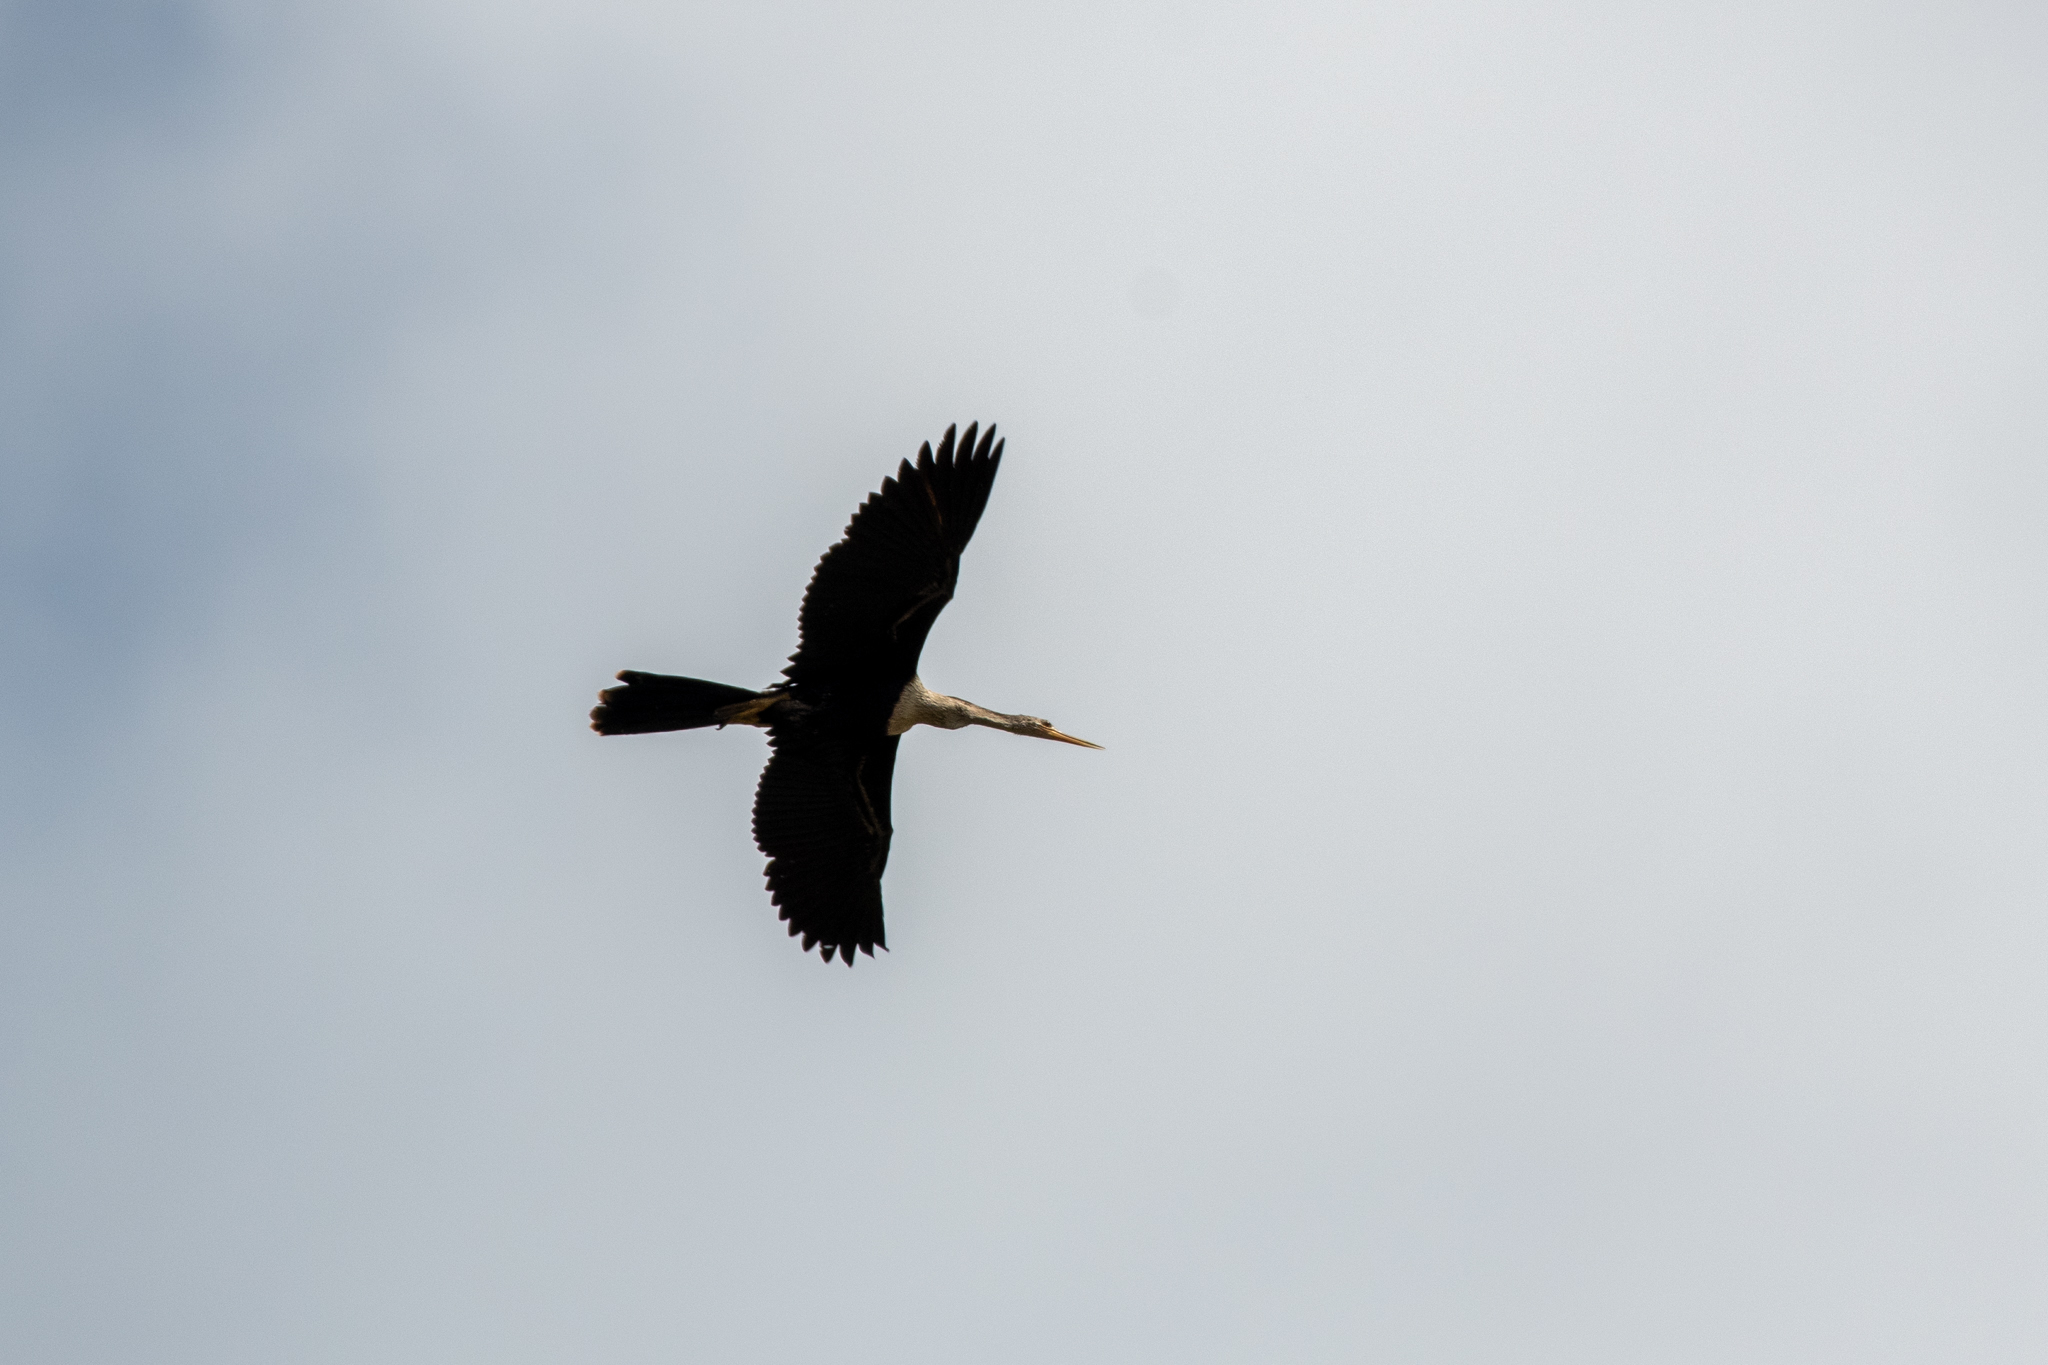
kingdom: Animalia
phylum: Chordata
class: Aves
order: Suliformes
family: Anhingidae
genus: Anhinga
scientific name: Anhinga anhinga
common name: Anhinga
